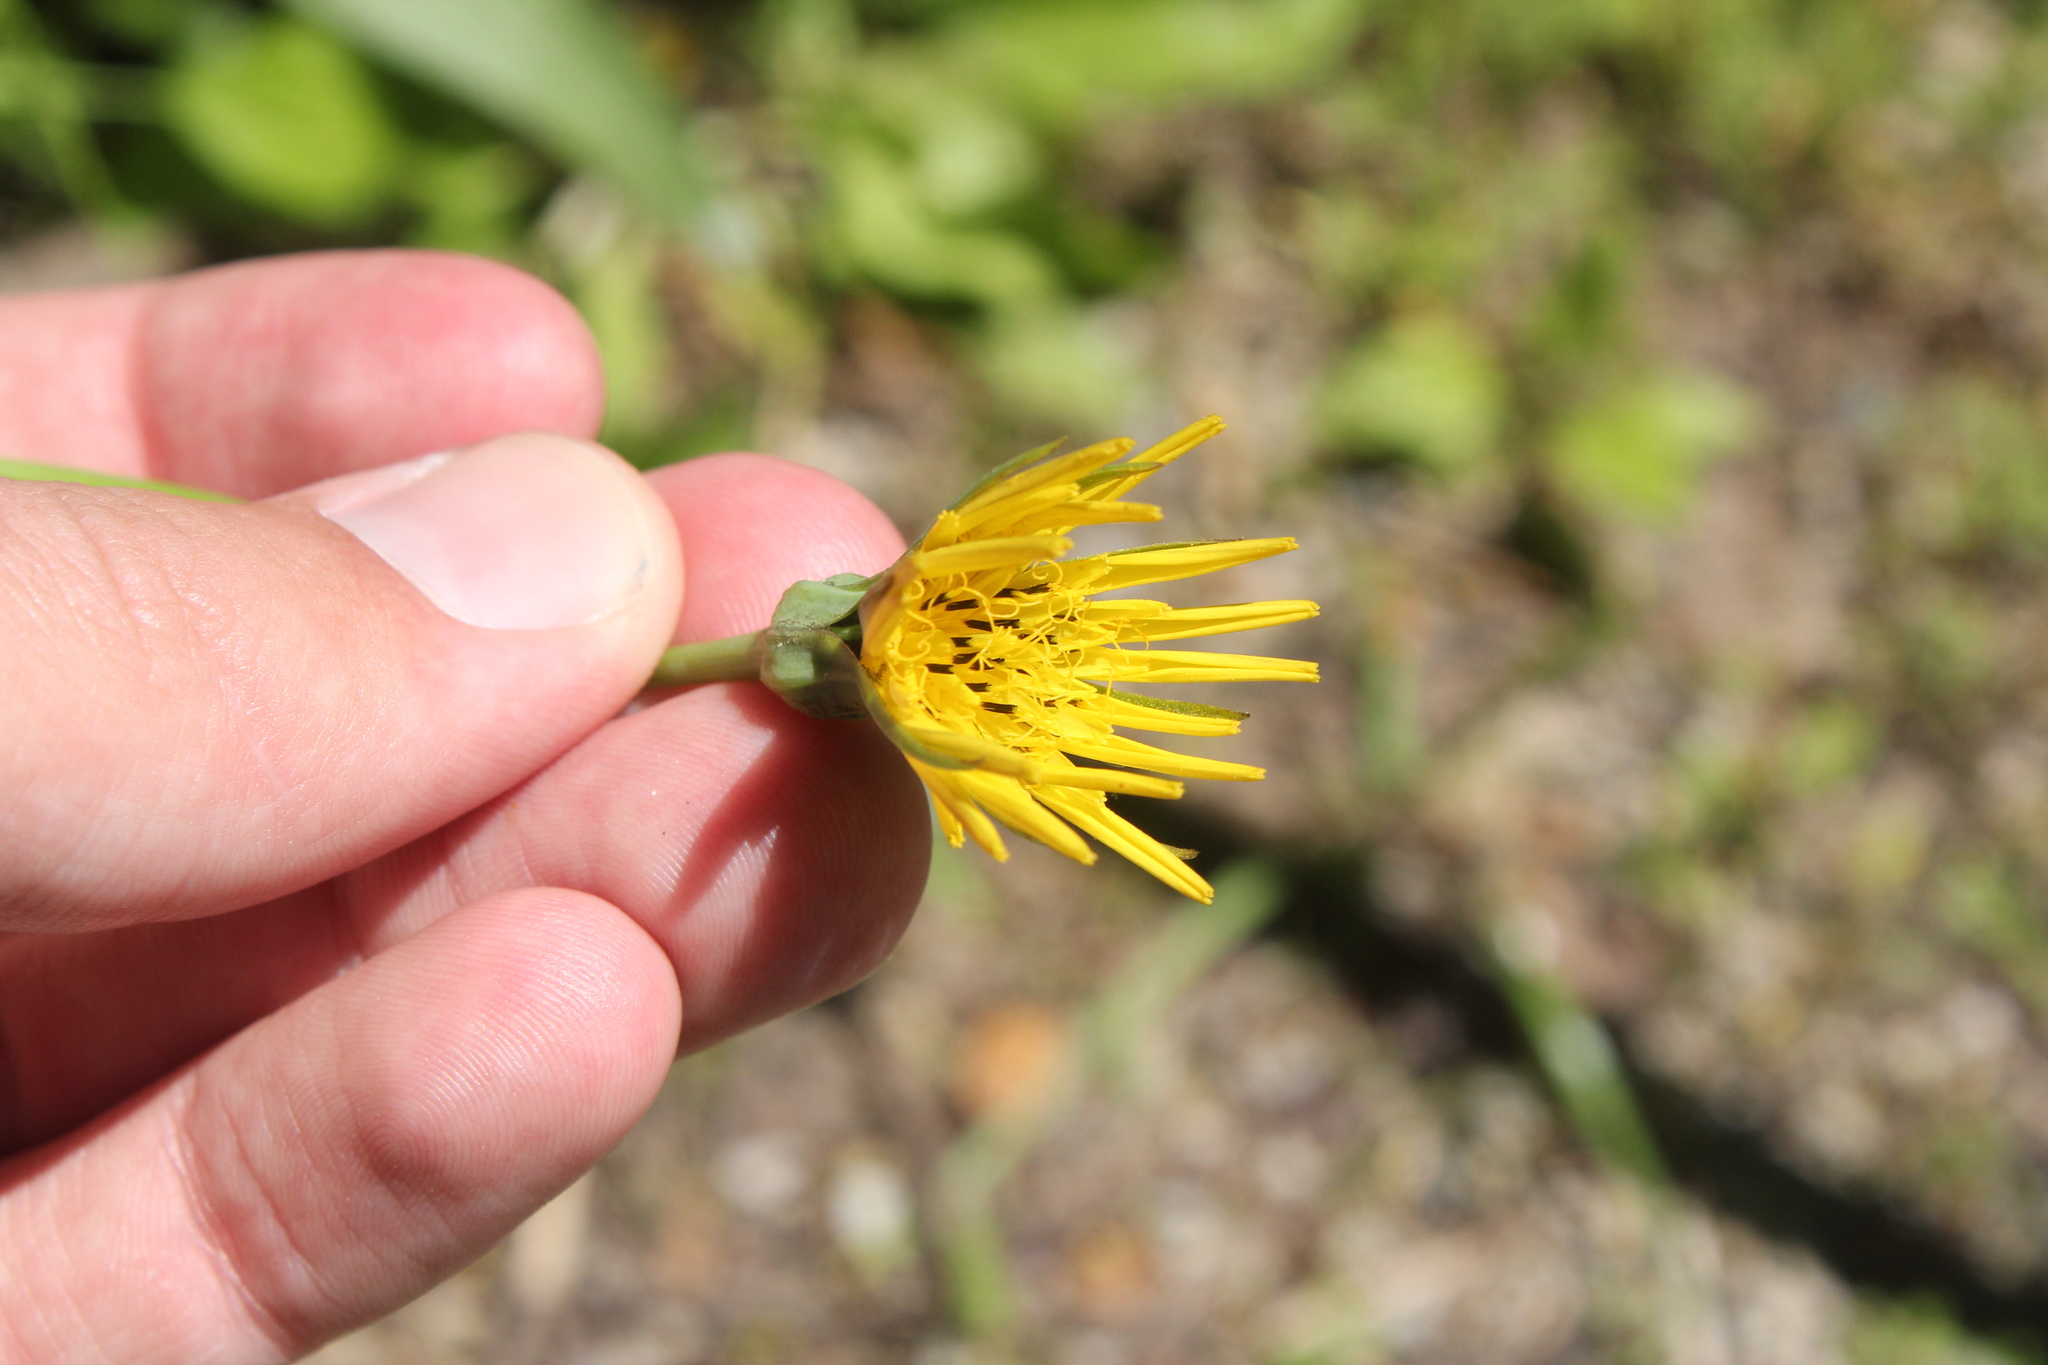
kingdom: Plantae
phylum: Tracheophyta
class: Magnoliopsida
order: Asterales
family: Asteraceae
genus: Tragopogon
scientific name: Tragopogon pratensis
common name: Goat's-beard
